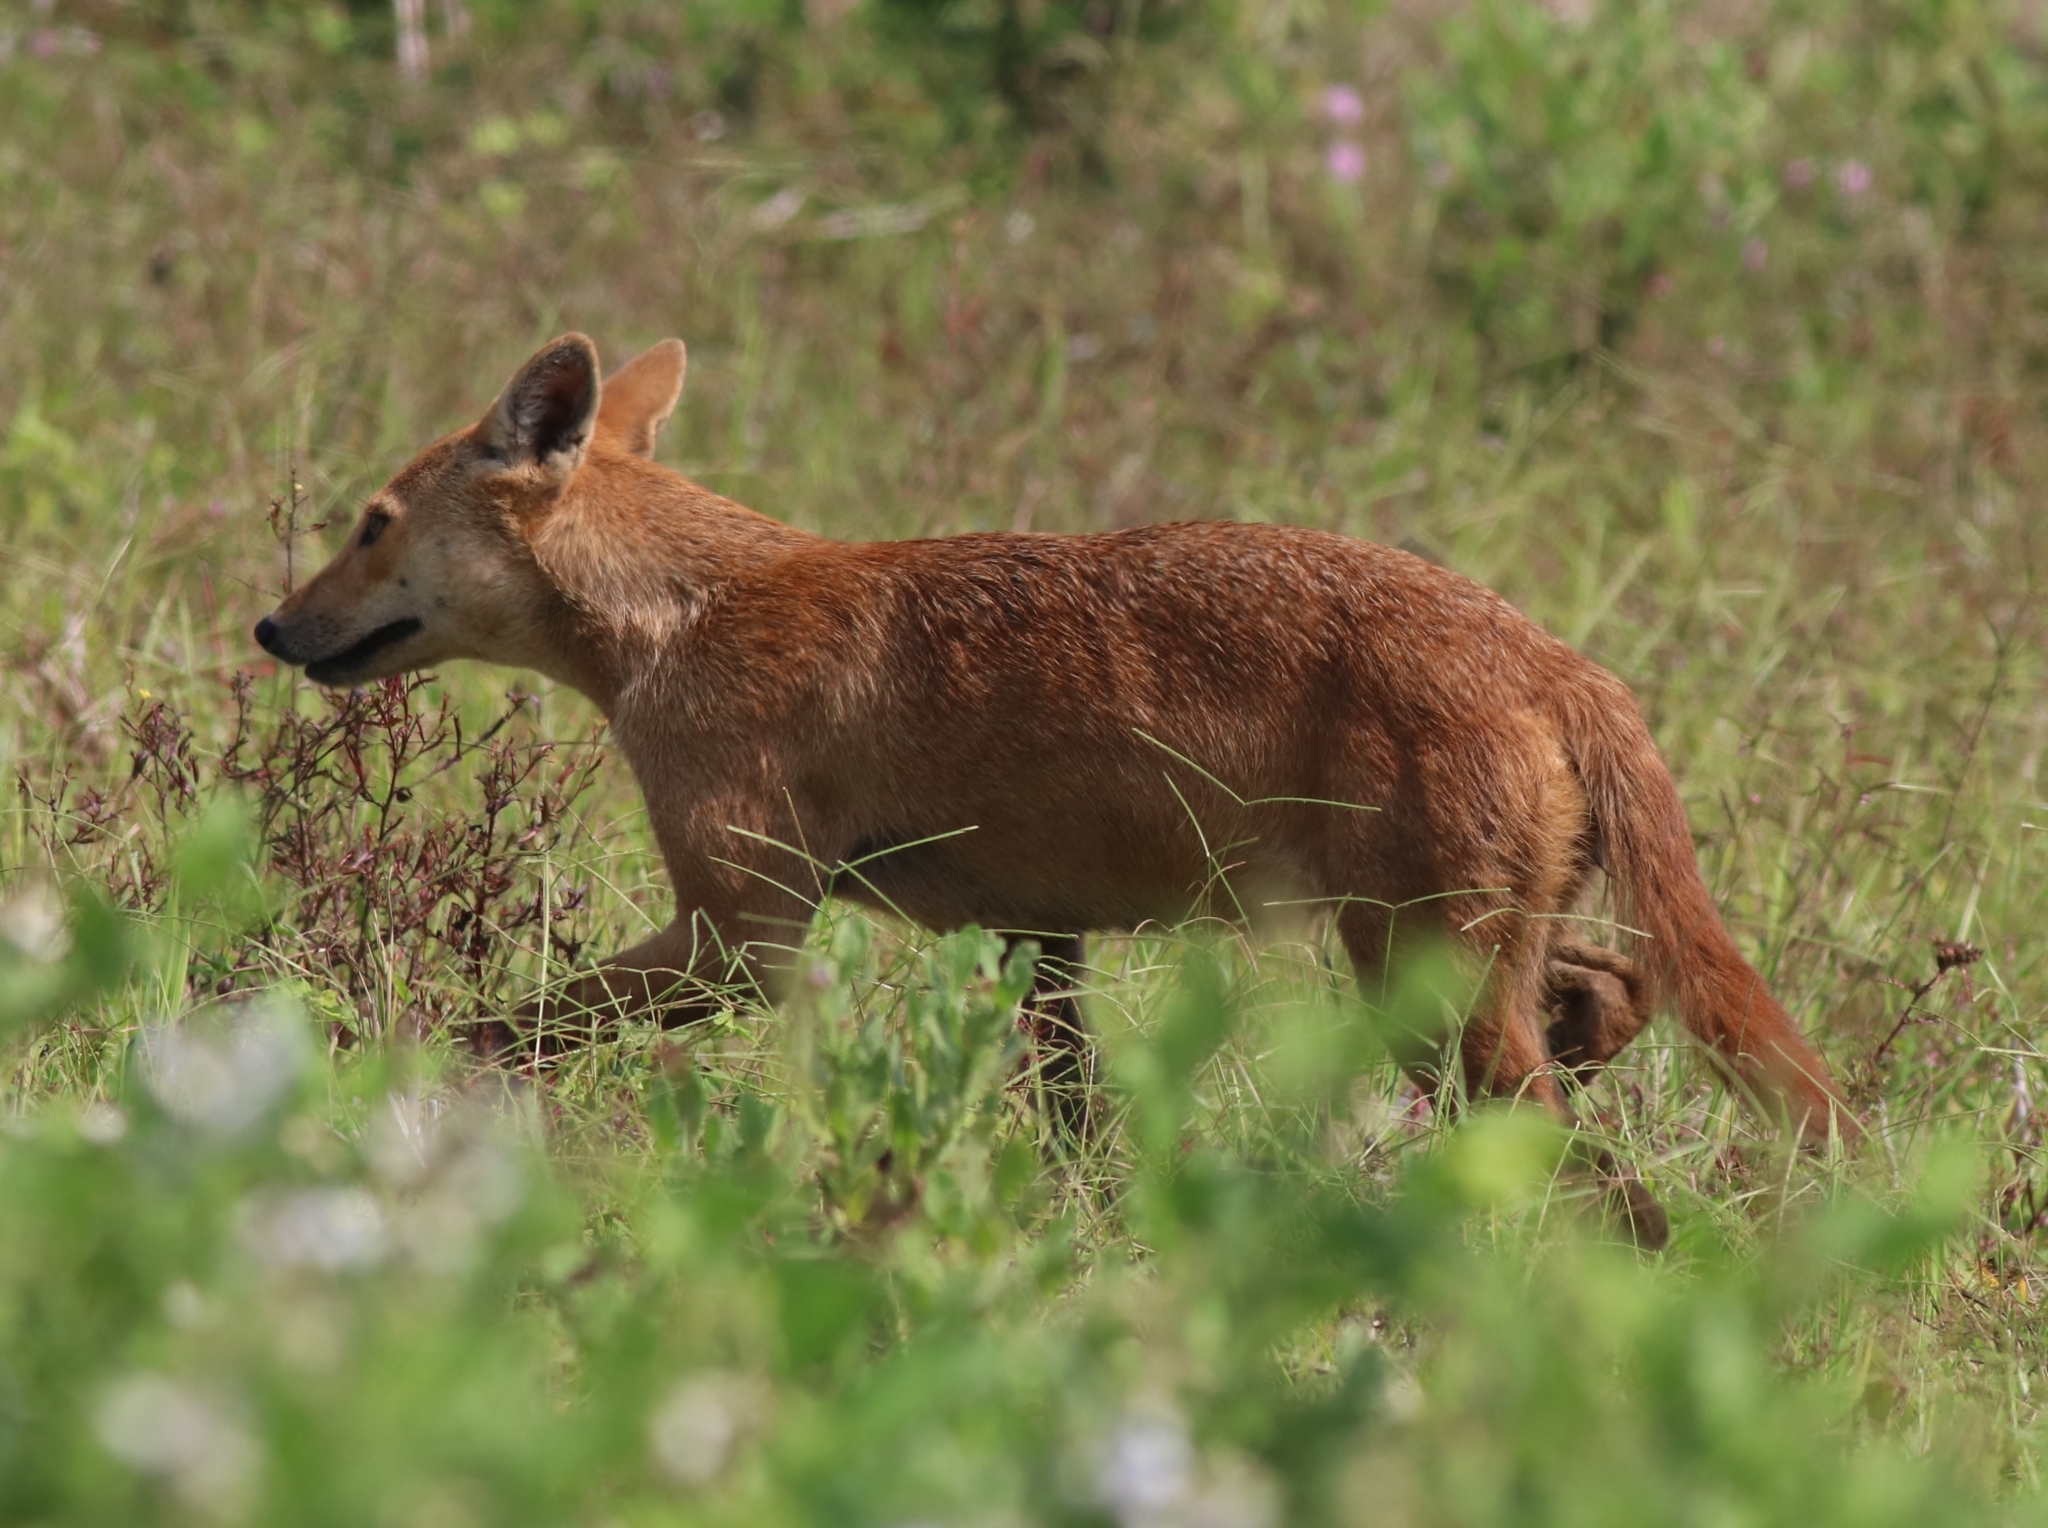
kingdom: Animalia
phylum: Chordata
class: Mammalia
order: Carnivora
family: Canidae
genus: Canis
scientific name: Canis aureus
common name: Golden jackal
